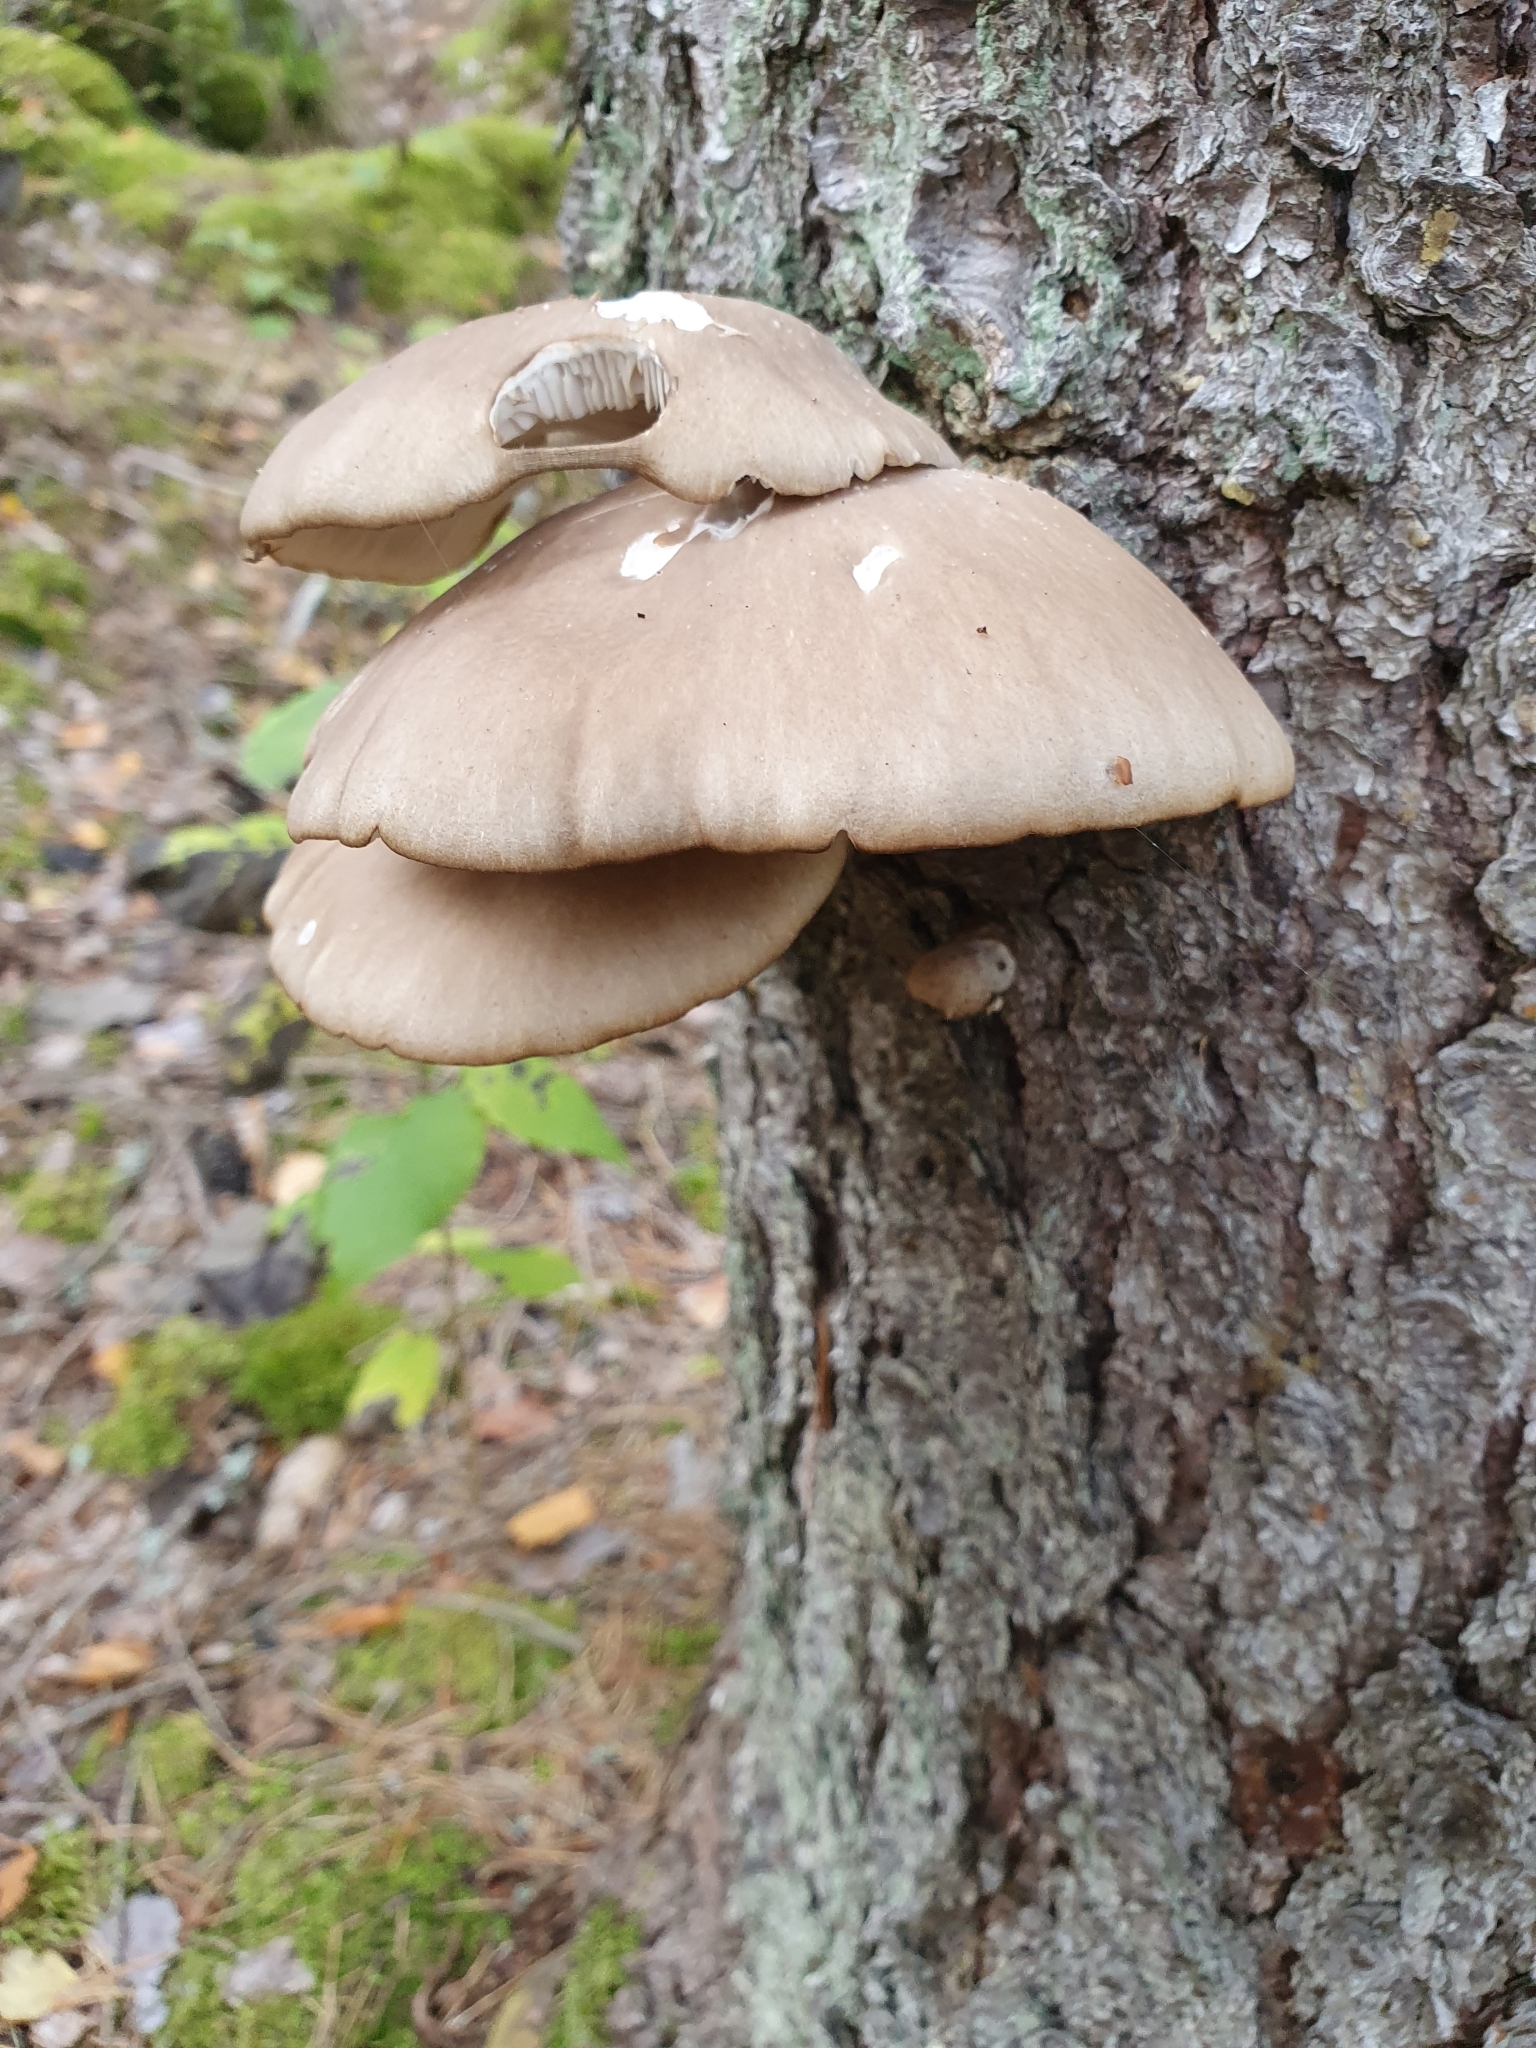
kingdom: Fungi
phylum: Basidiomycota
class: Agaricomycetes
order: Agaricales
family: Pleurotaceae
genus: Pleurotus
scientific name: Pleurotus ostreatus
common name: Oyster mushroom
